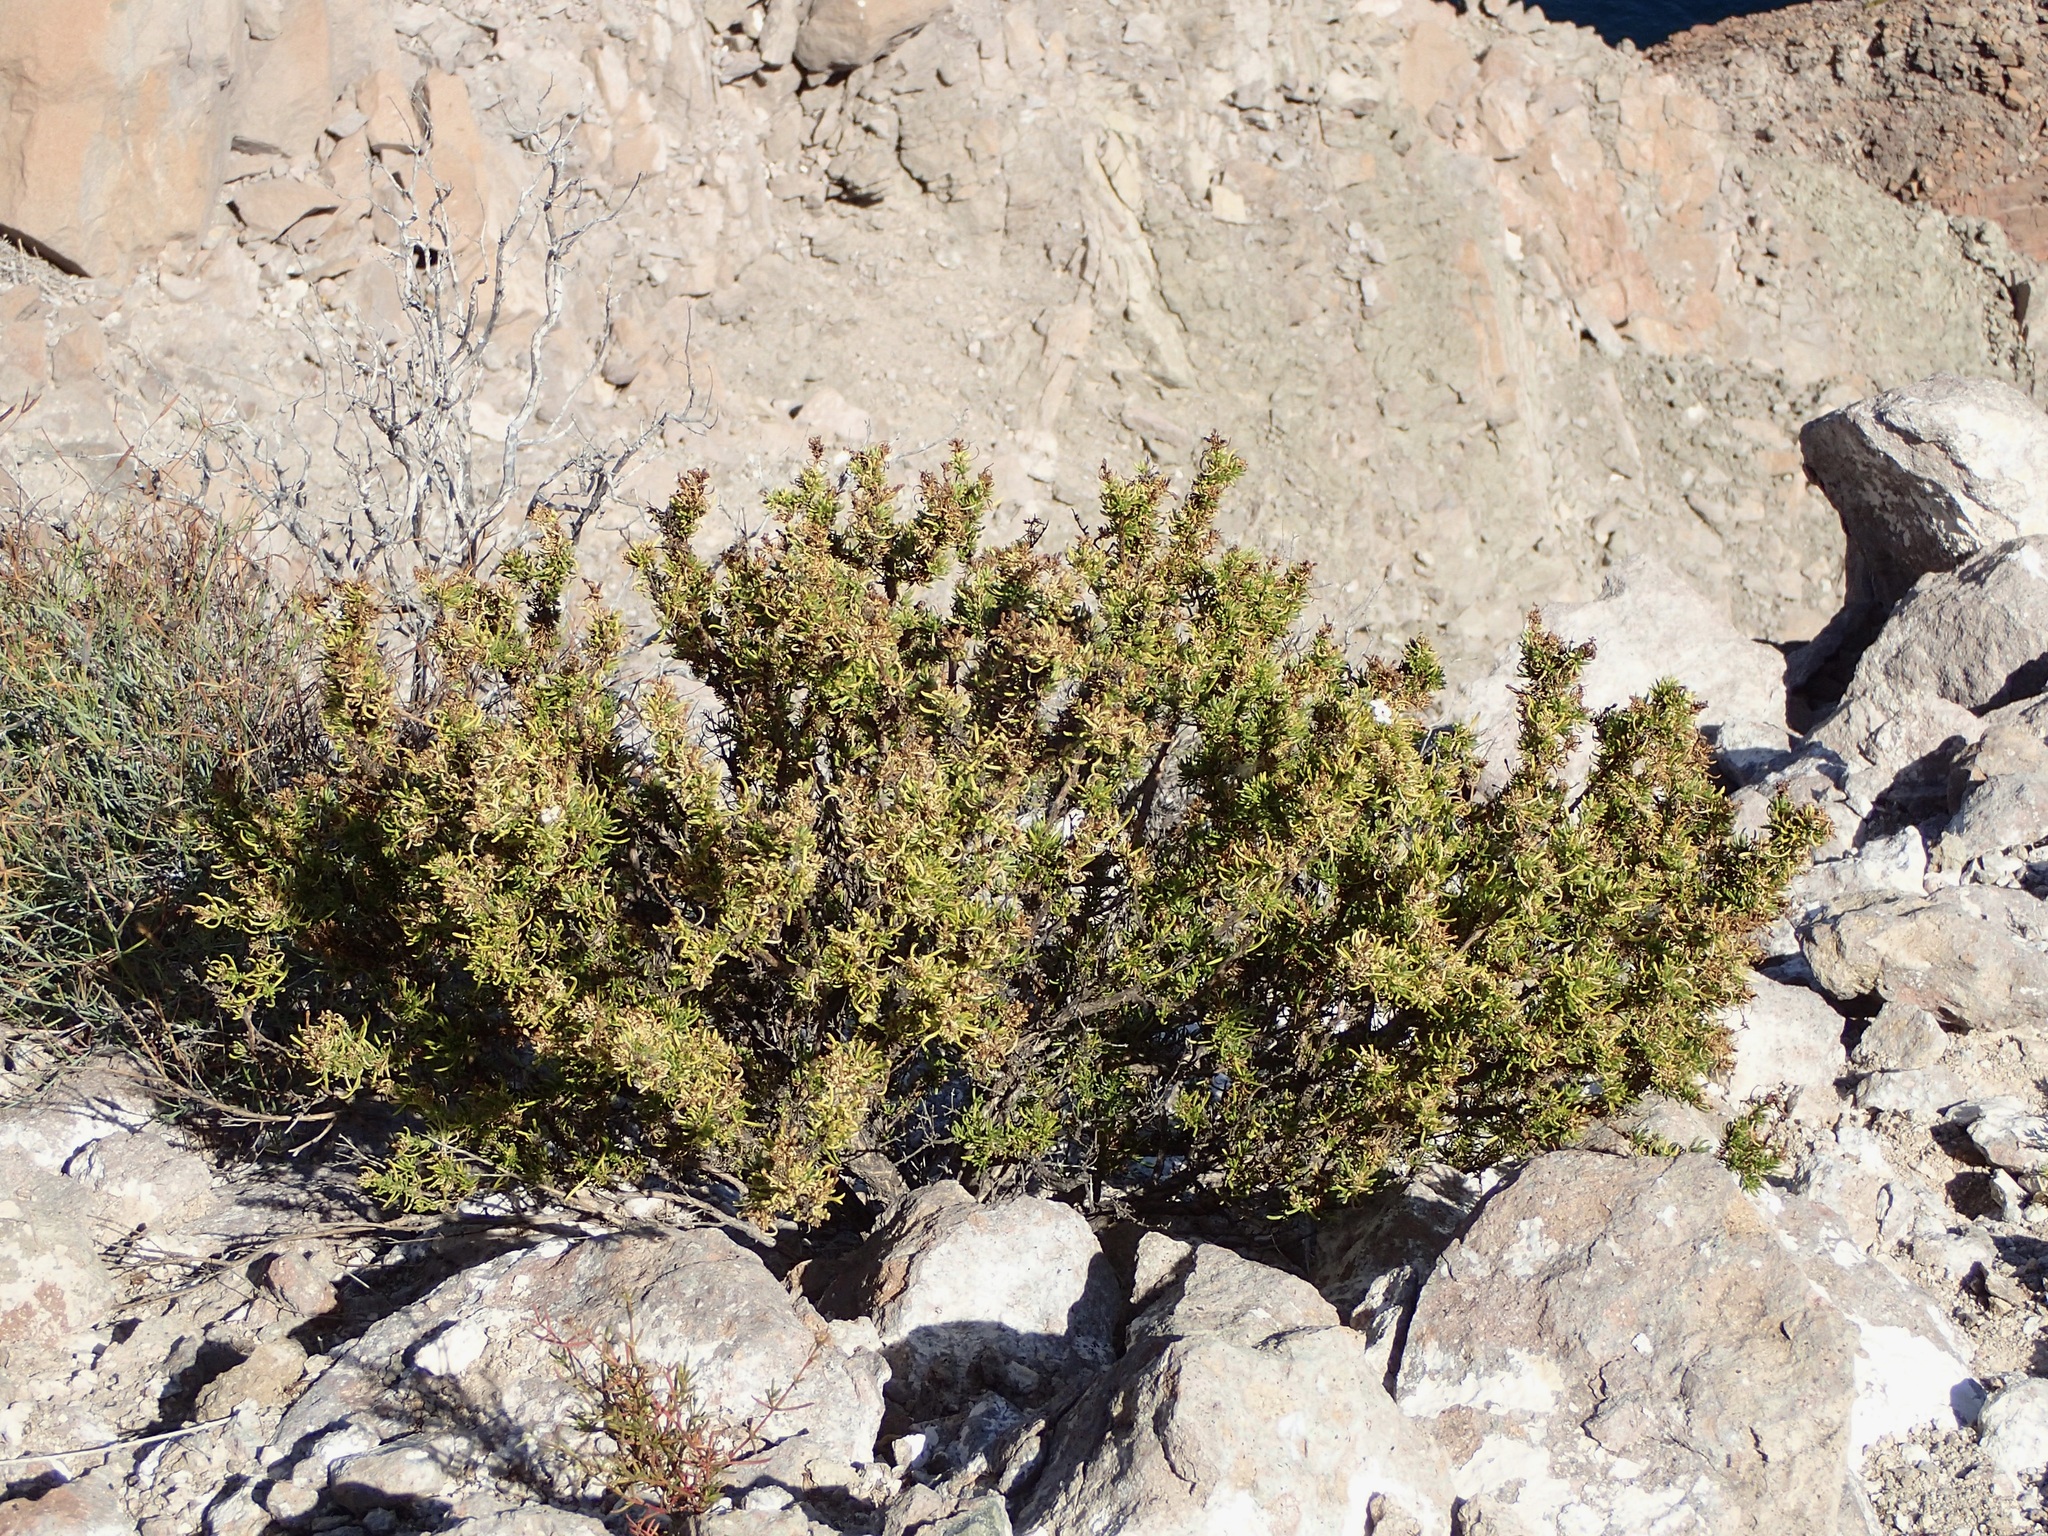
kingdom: Plantae
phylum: Tracheophyta
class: Magnoliopsida
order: Gentianales
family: Rubiaceae
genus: Stenotis
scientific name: Stenotis mucronata
